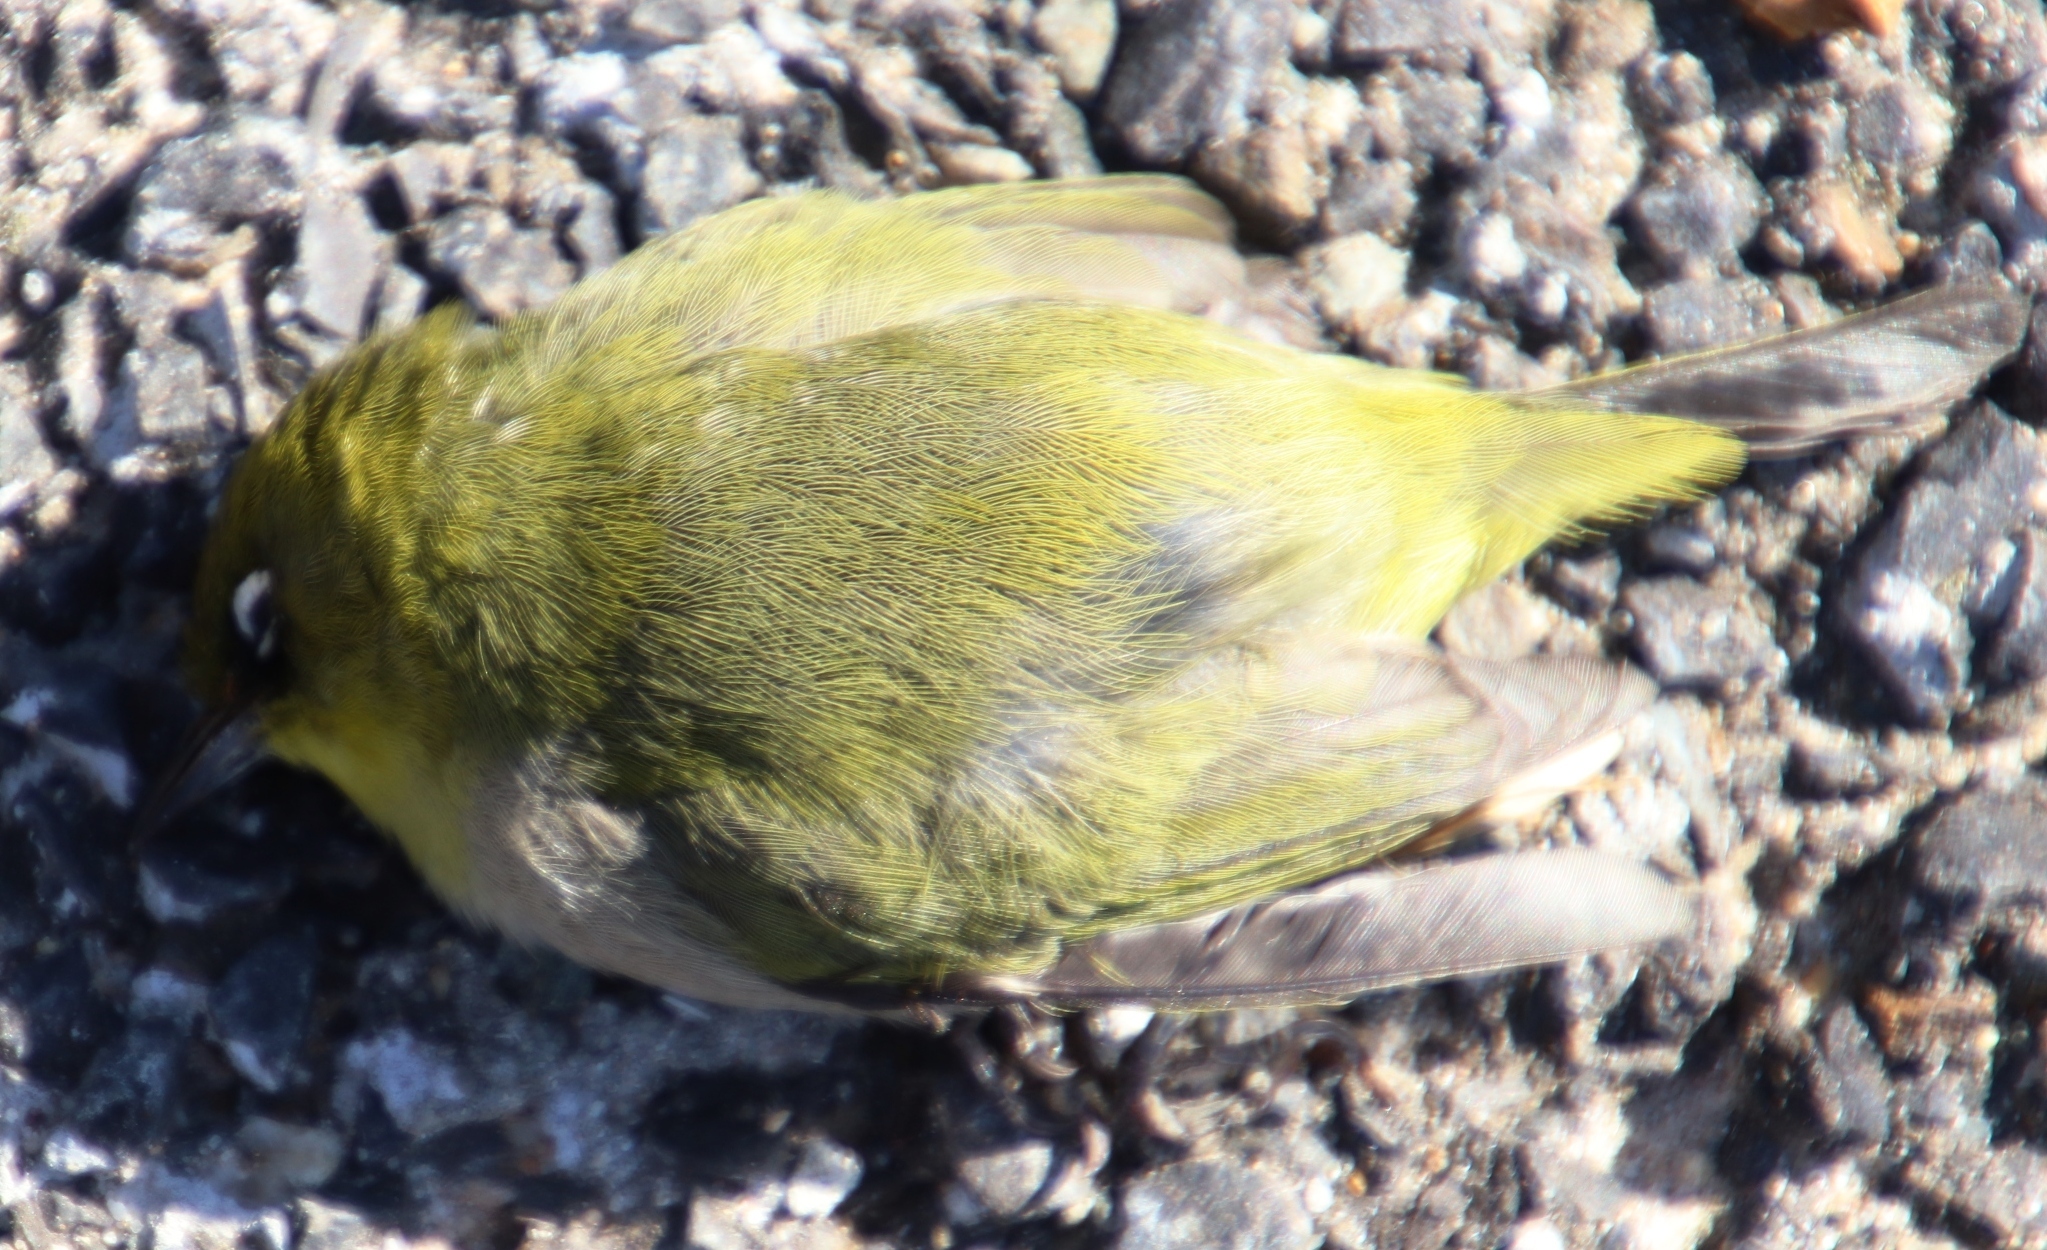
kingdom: Animalia
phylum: Chordata
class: Aves
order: Passeriformes
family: Zosteropidae
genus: Zosterops
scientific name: Zosterops virens
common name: Cape white-eye
